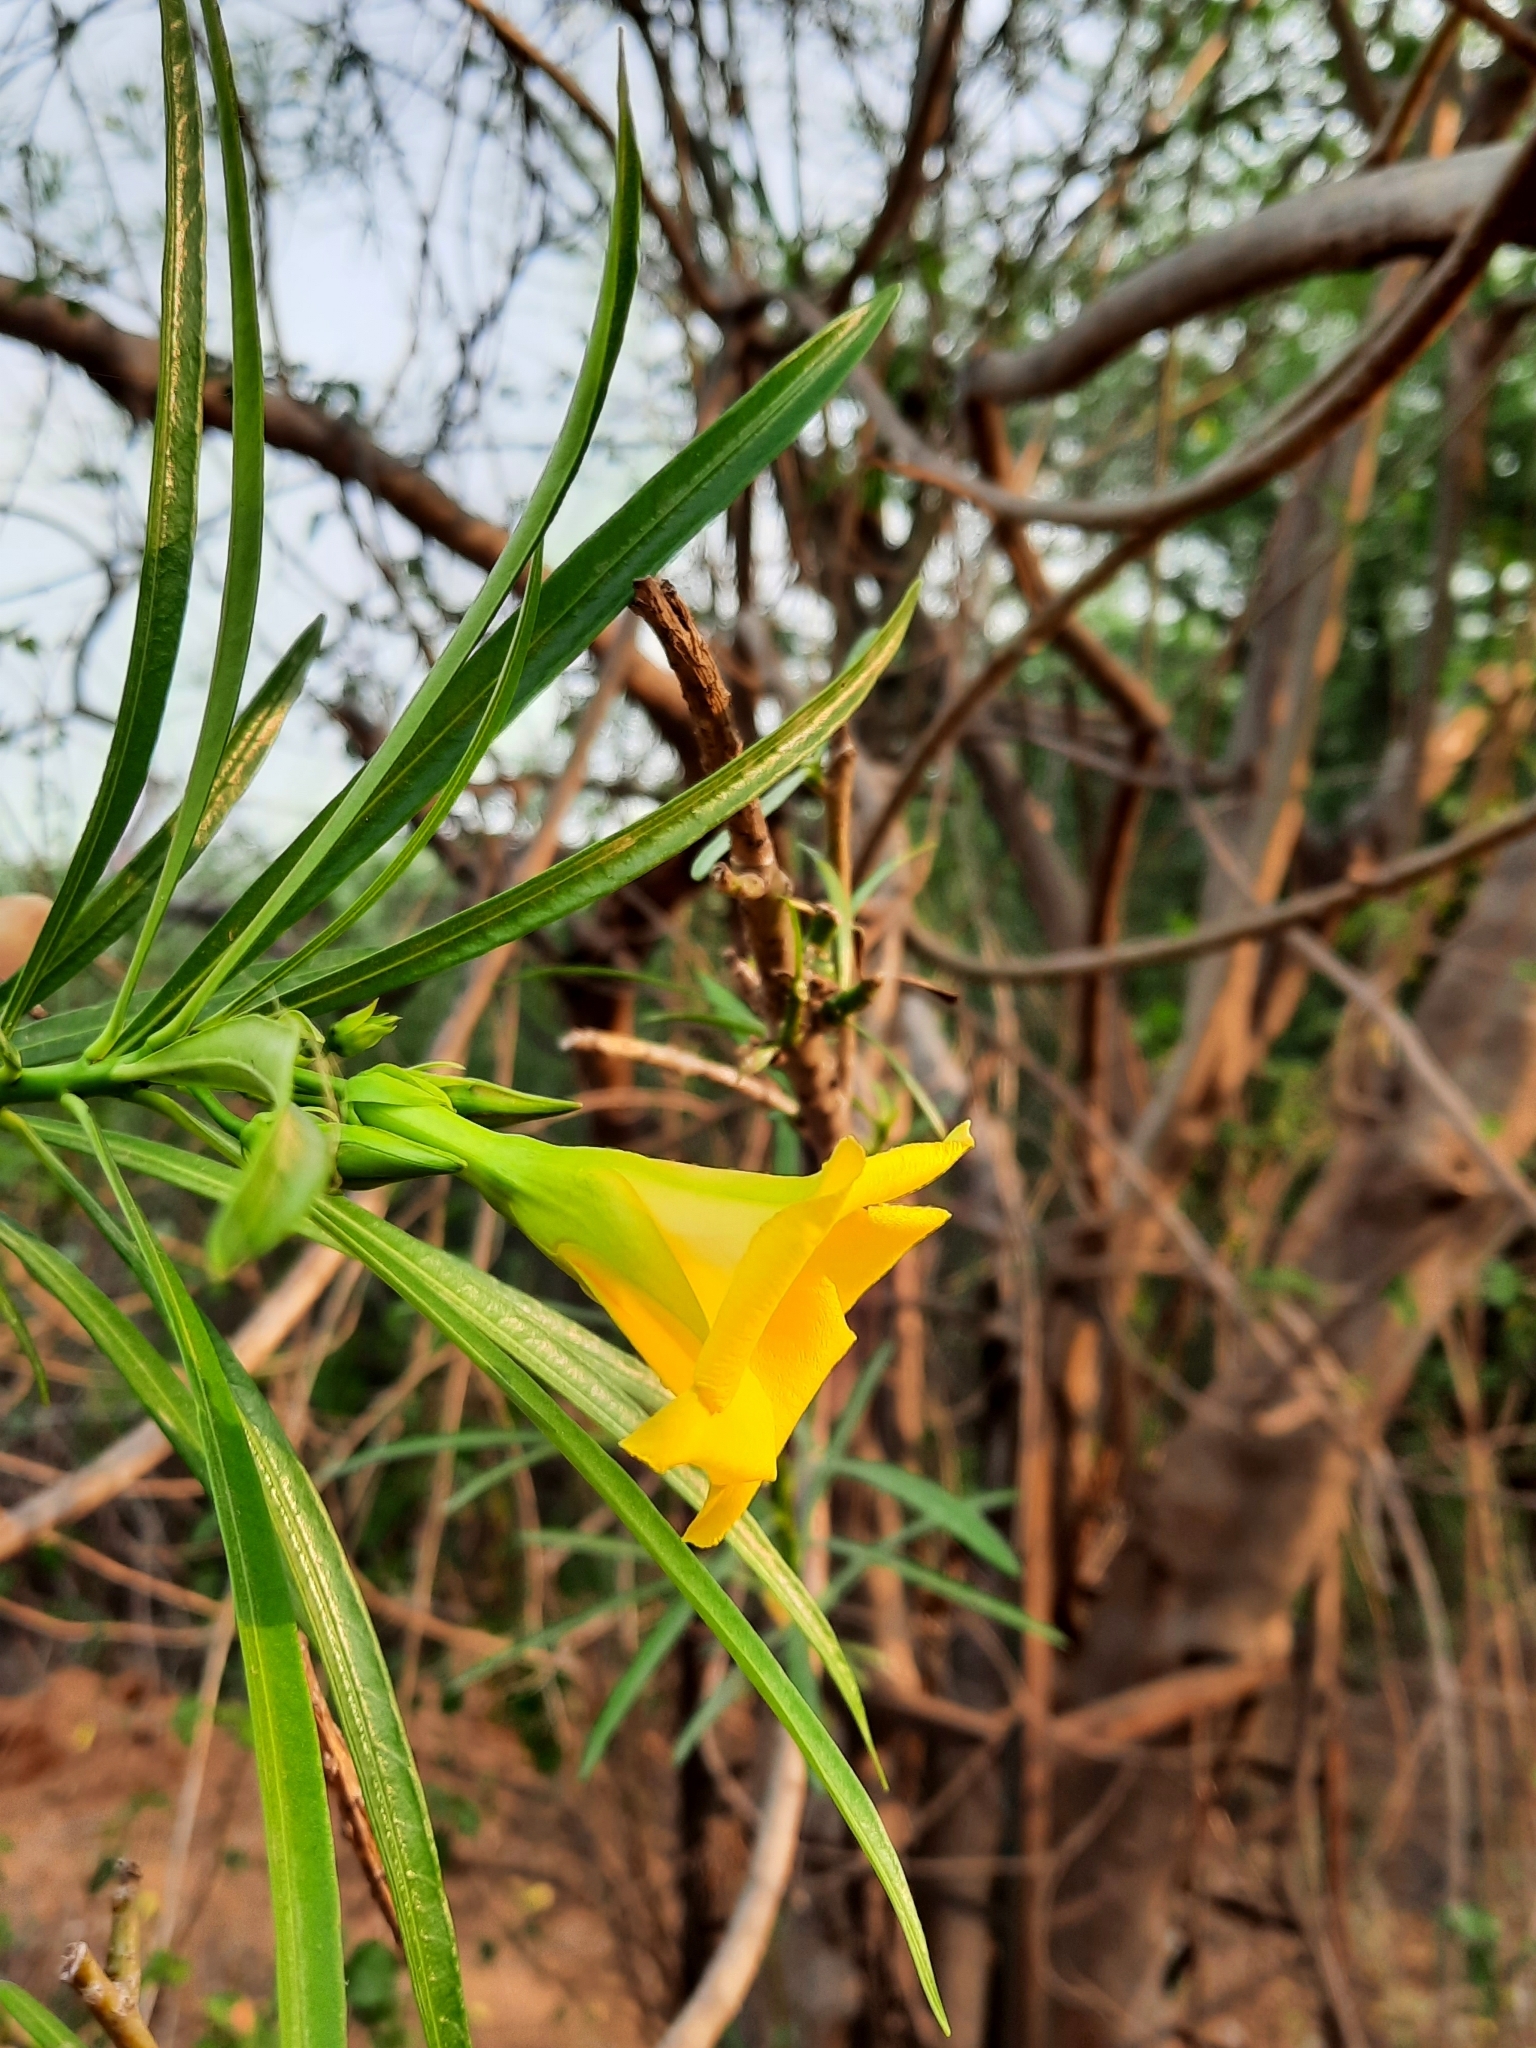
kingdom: Plantae
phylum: Tracheophyta
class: Magnoliopsida
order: Gentianales
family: Apocynaceae
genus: Cascabela
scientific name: Cascabela thevetia
